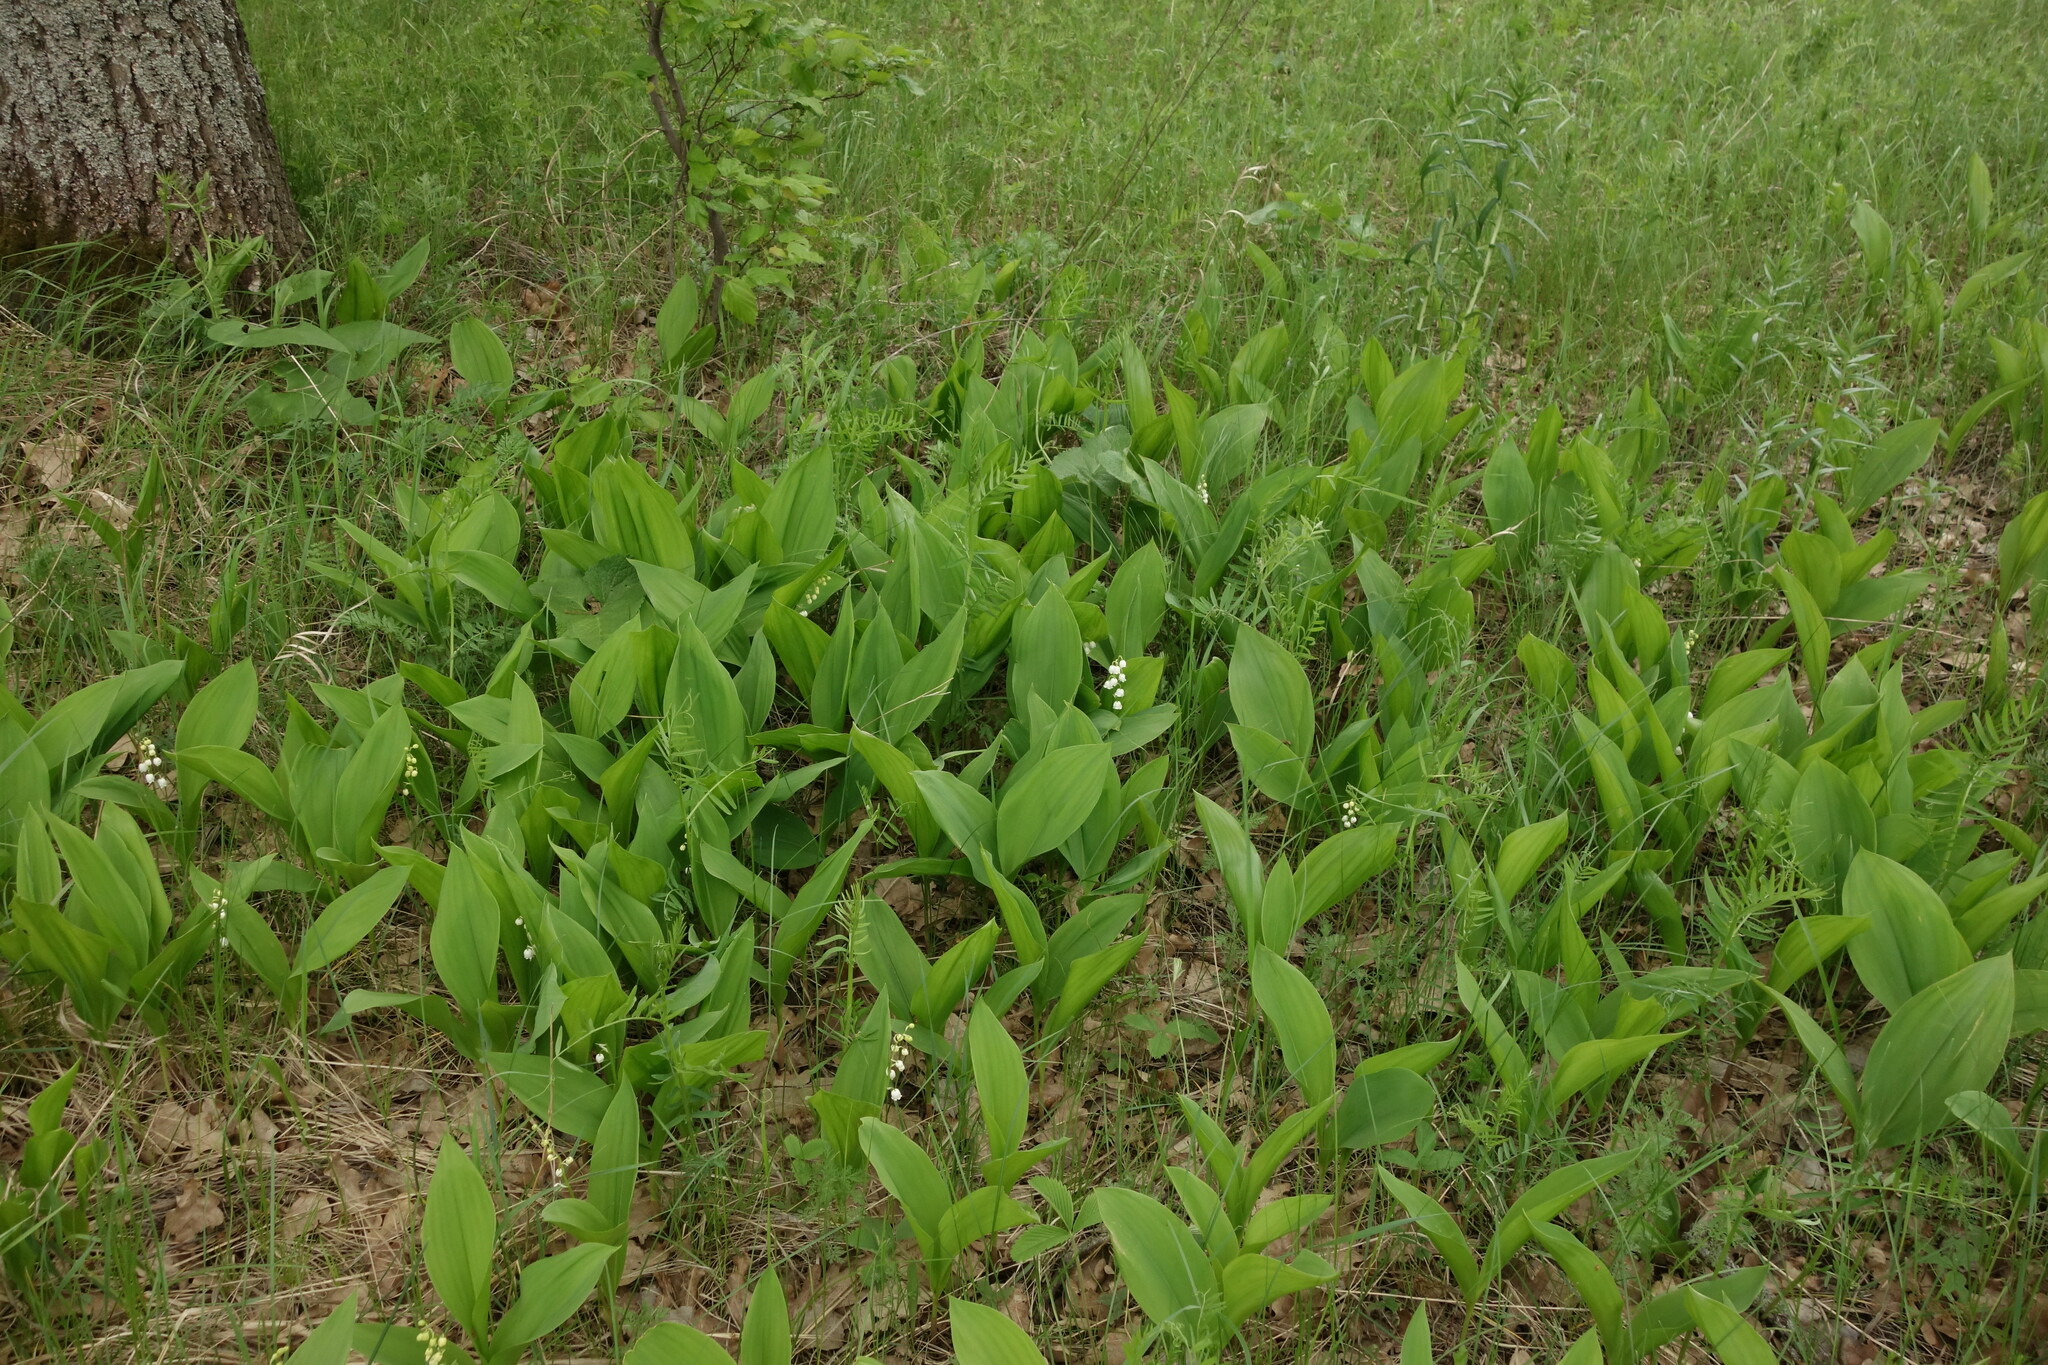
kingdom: Plantae
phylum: Tracheophyta
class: Liliopsida
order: Asparagales
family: Asparagaceae
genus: Convallaria
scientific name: Convallaria majalis
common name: Lily-of-the-valley
